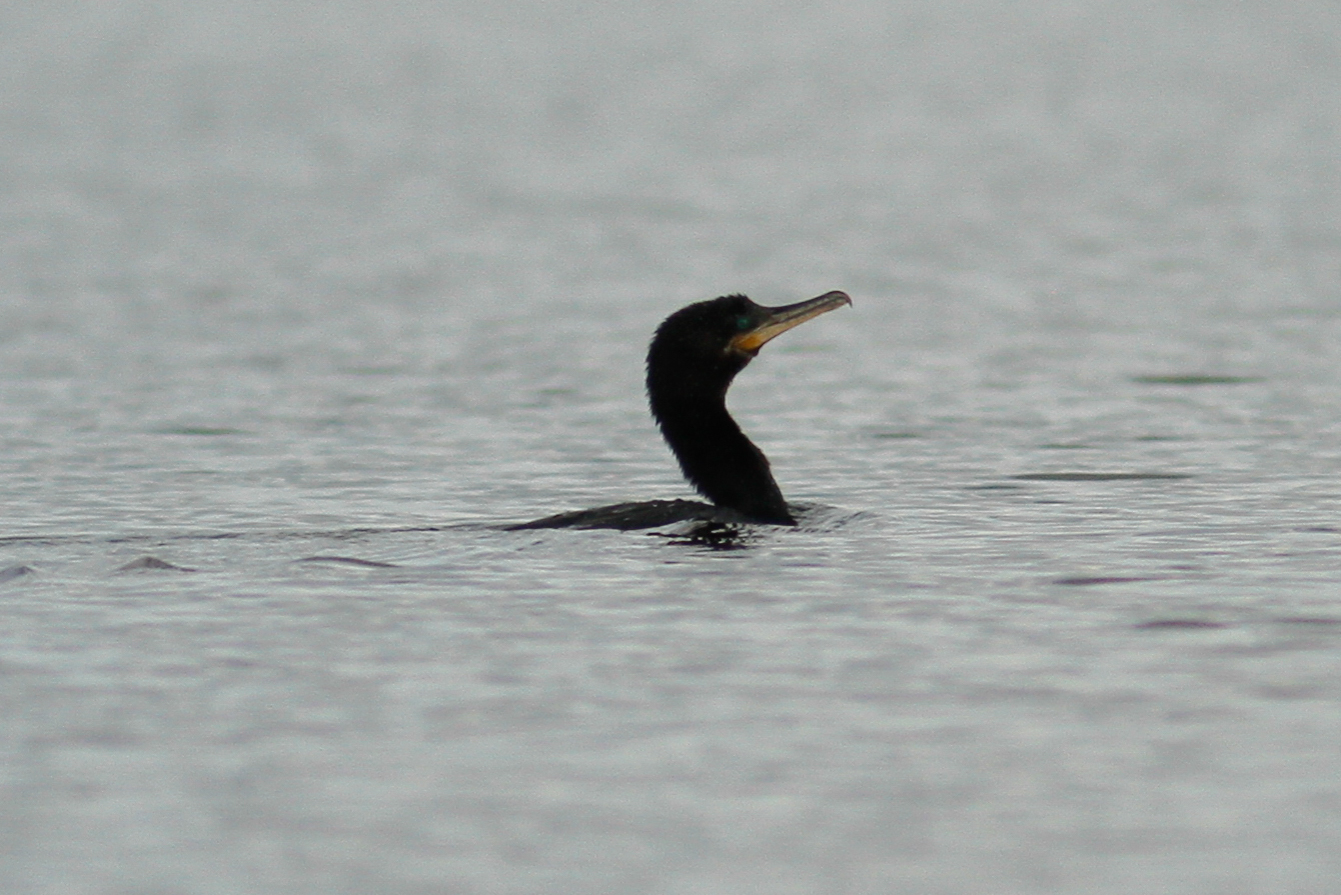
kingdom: Animalia
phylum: Chordata
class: Aves
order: Suliformes
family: Phalacrocoracidae
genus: Phalacrocorax
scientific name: Phalacrocorax brasilianus
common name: Neotropic cormorant
